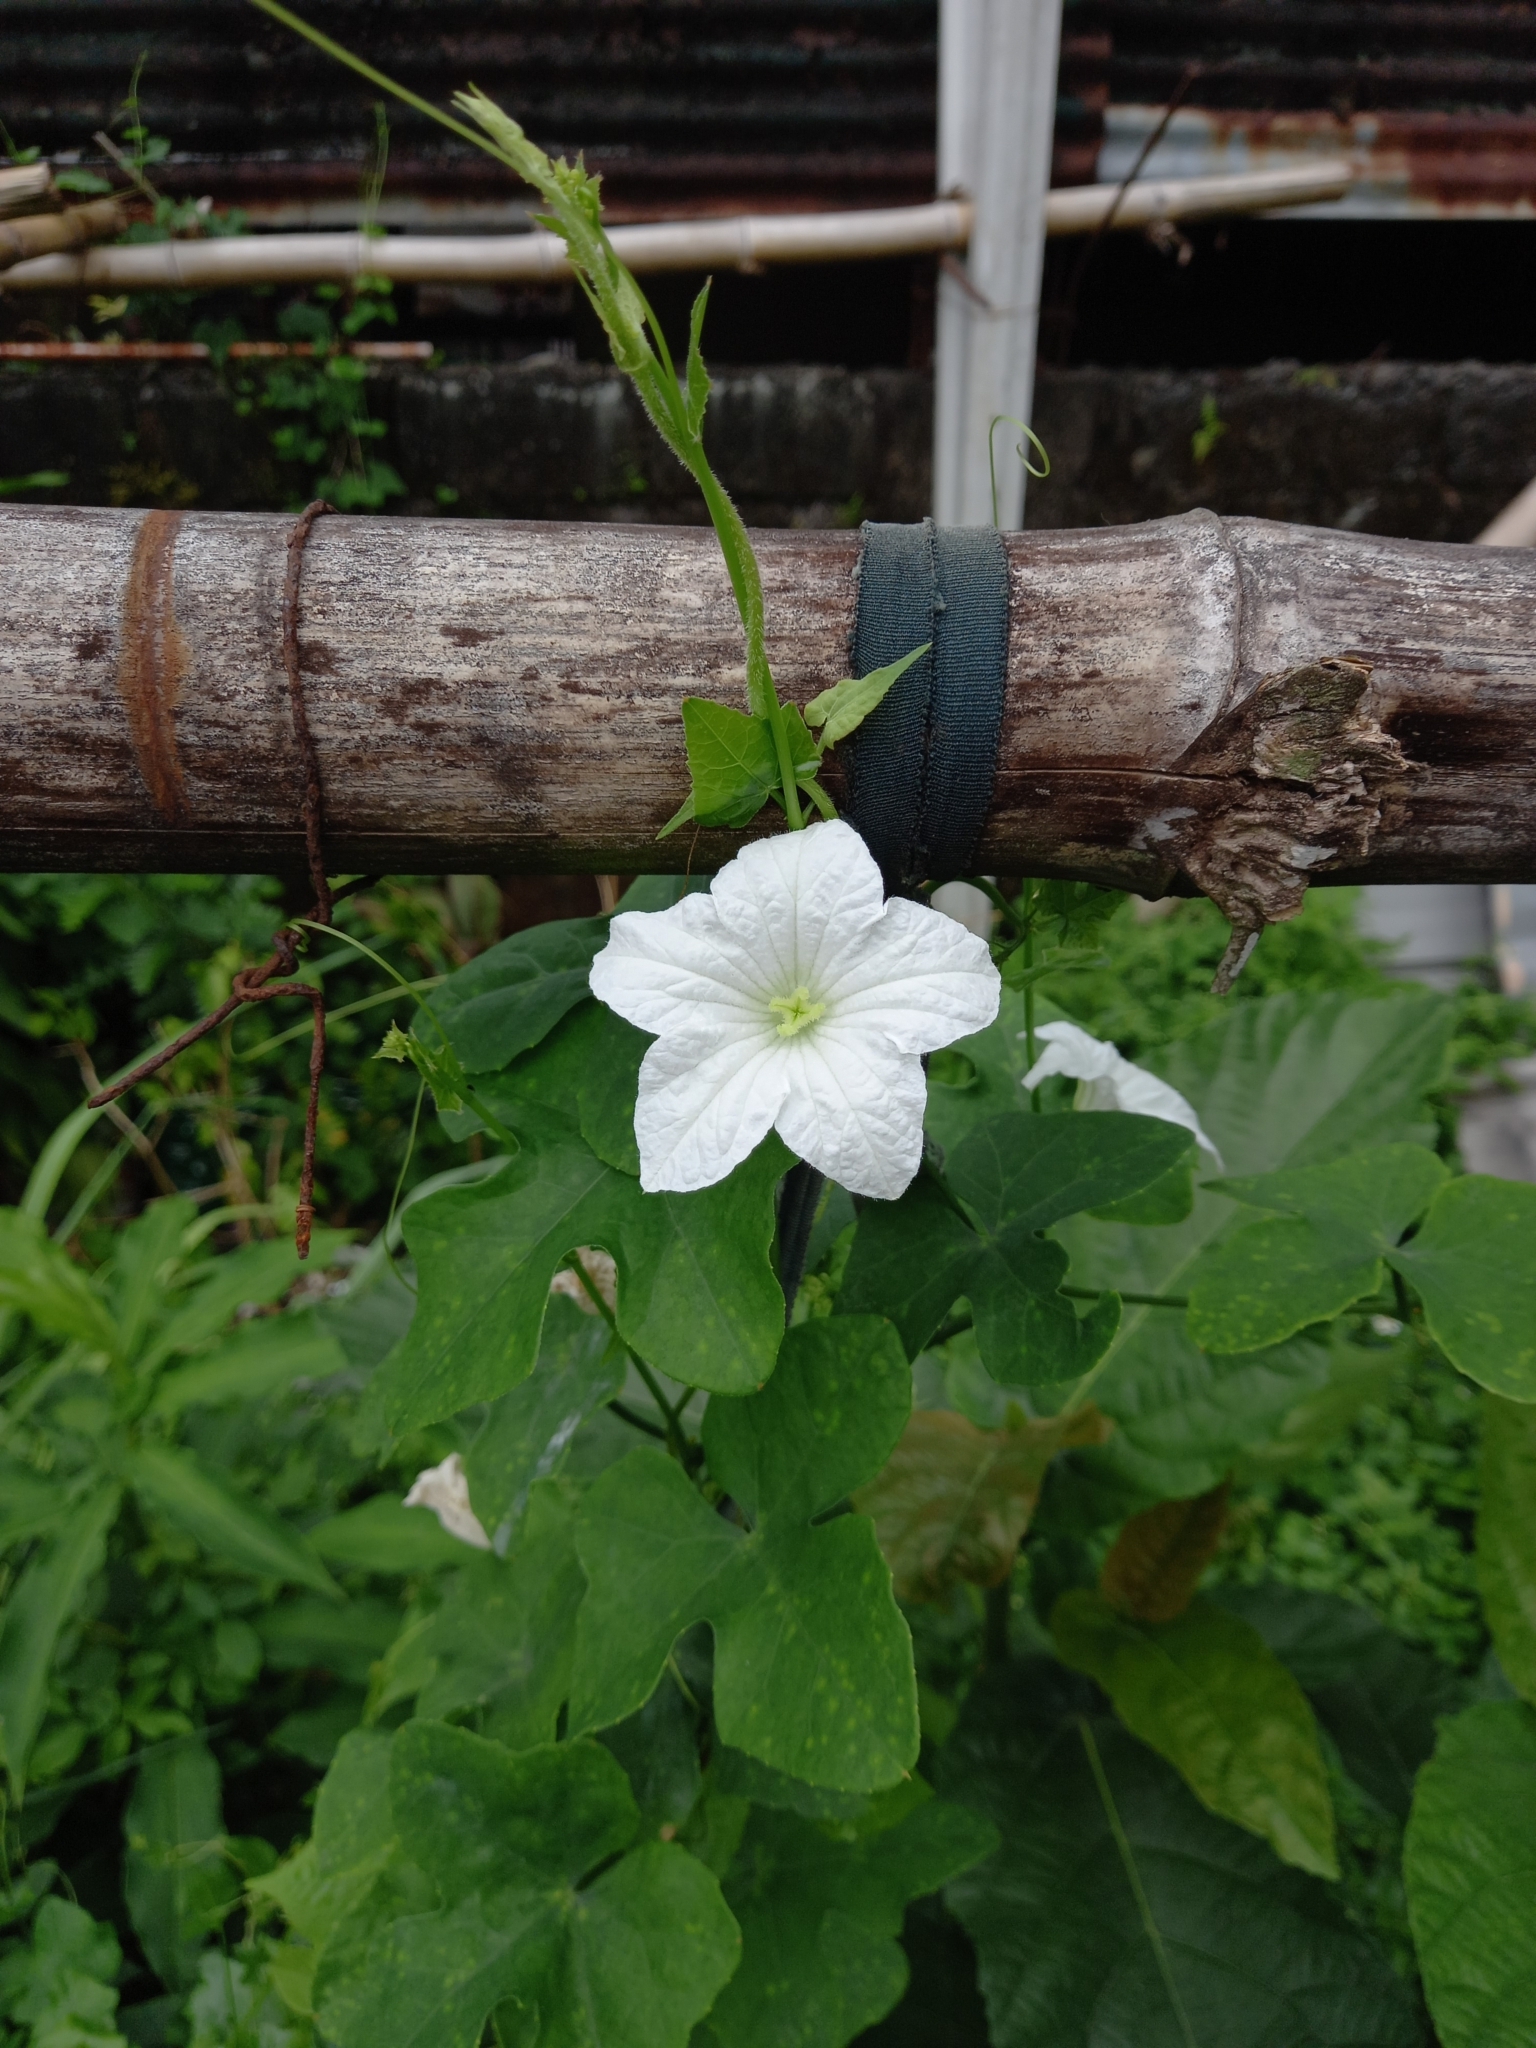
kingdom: Plantae
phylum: Tracheophyta
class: Magnoliopsida
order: Cucurbitales
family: Cucurbitaceae
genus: Coccinia
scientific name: Coccinia grandis
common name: Ivy gourd
